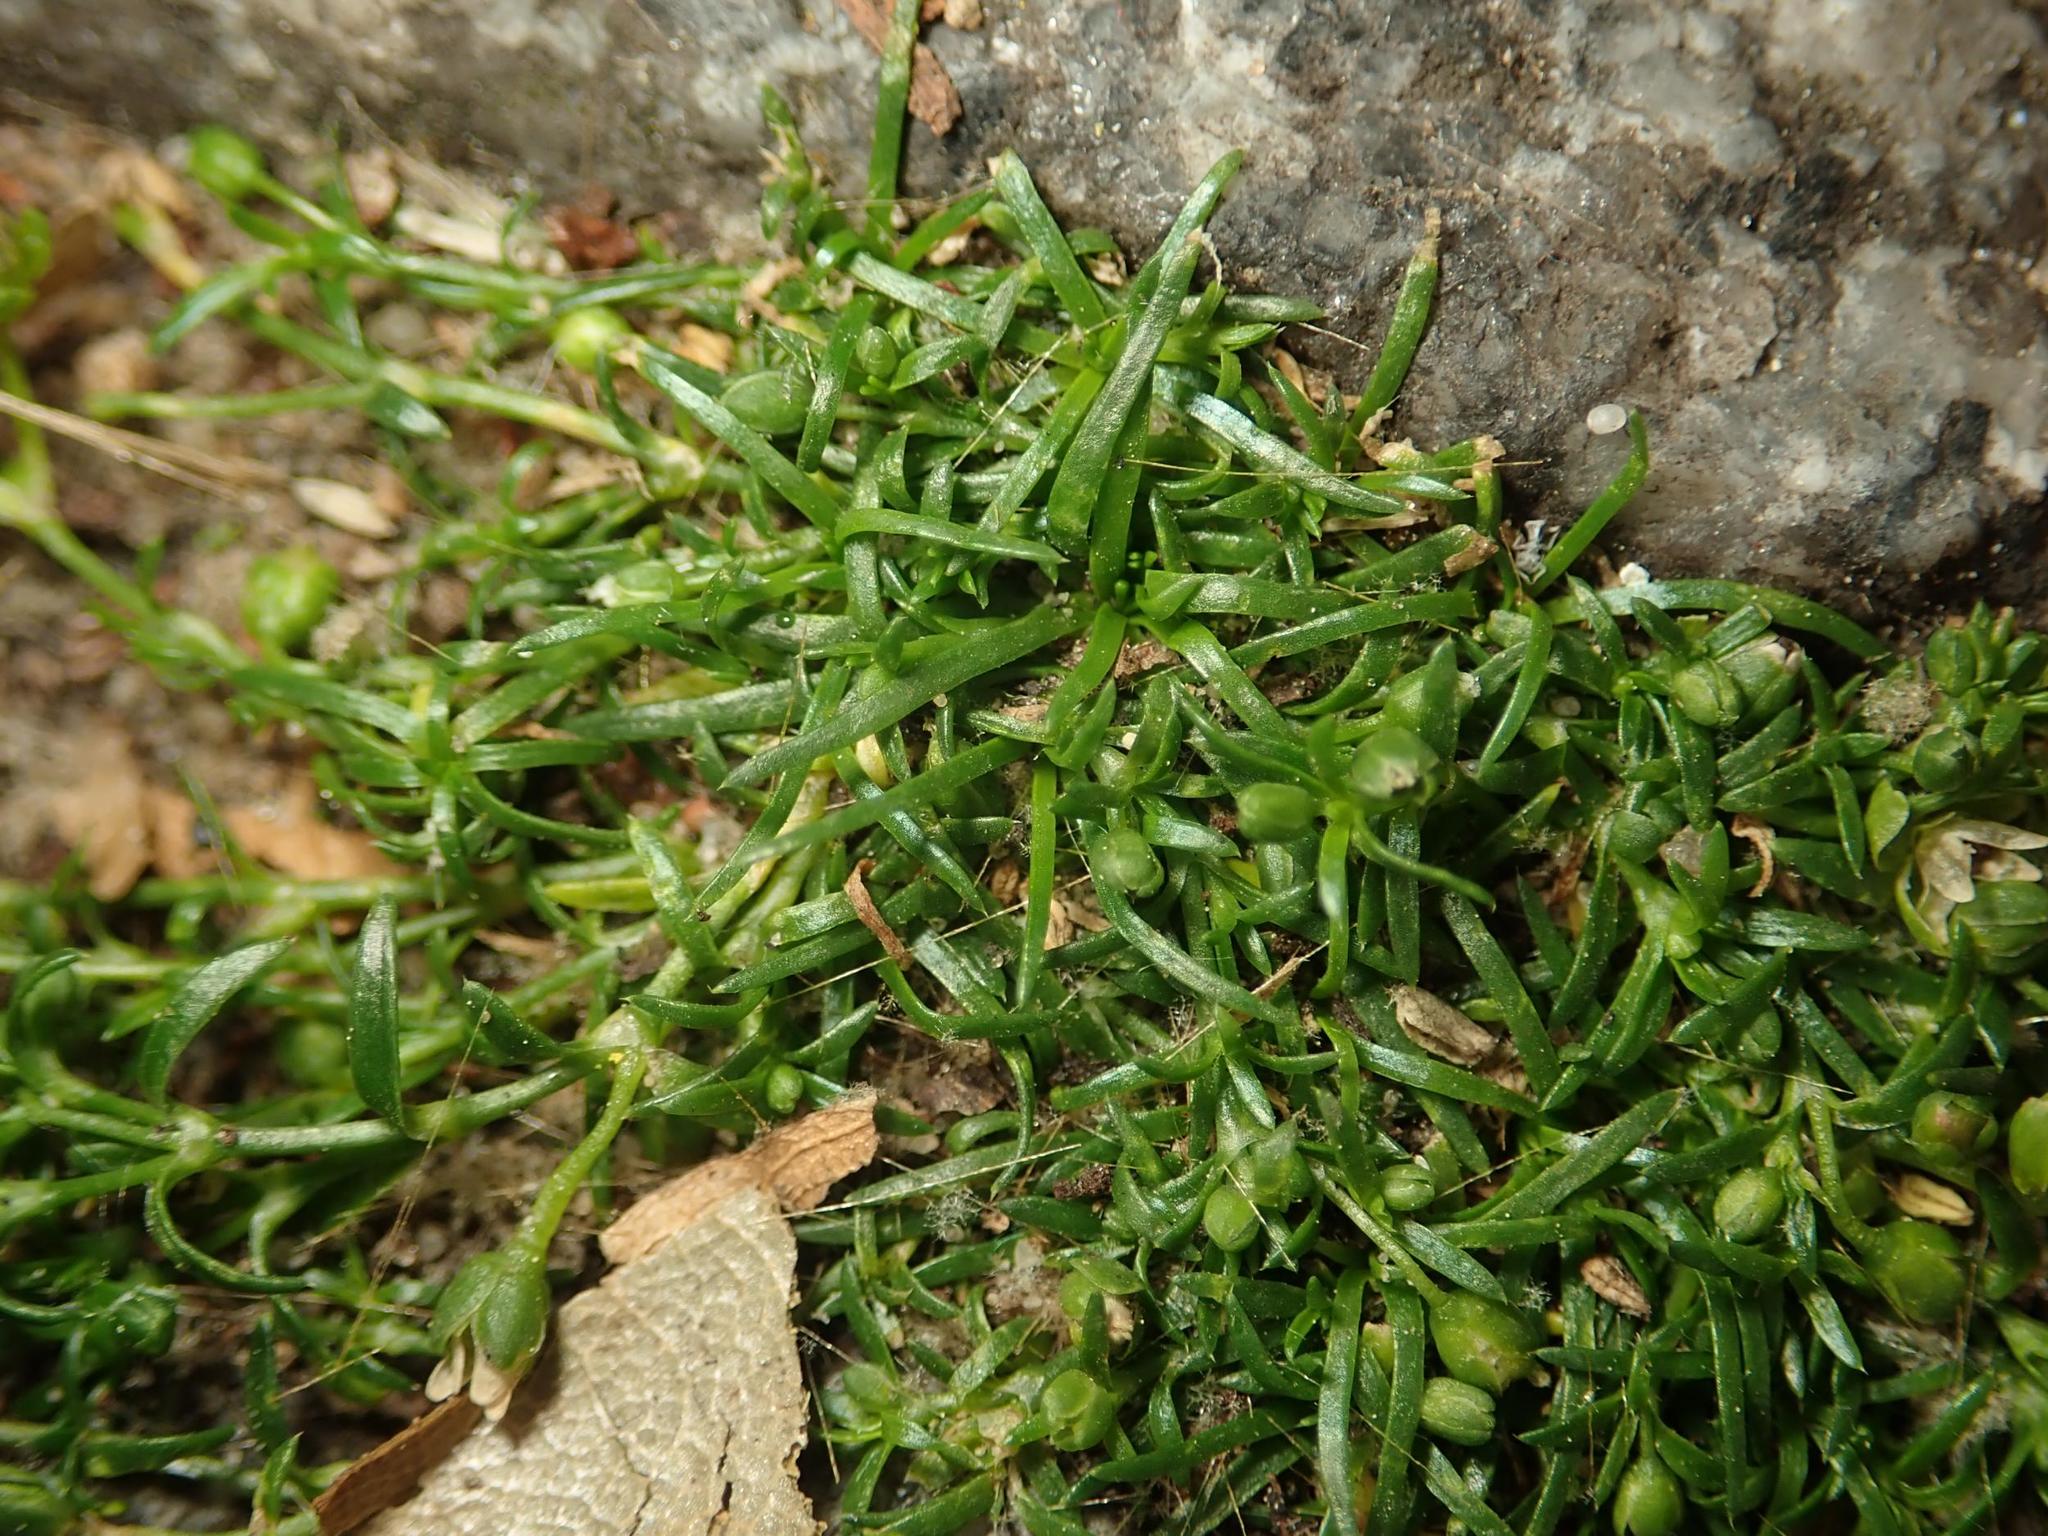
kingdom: Plantae
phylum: Tracheophyta
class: Magnoliopsida
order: Caryophyllales
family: Caryophyllaceae
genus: Sagina
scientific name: Sagina procumbens
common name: Procumbent pearlwort
